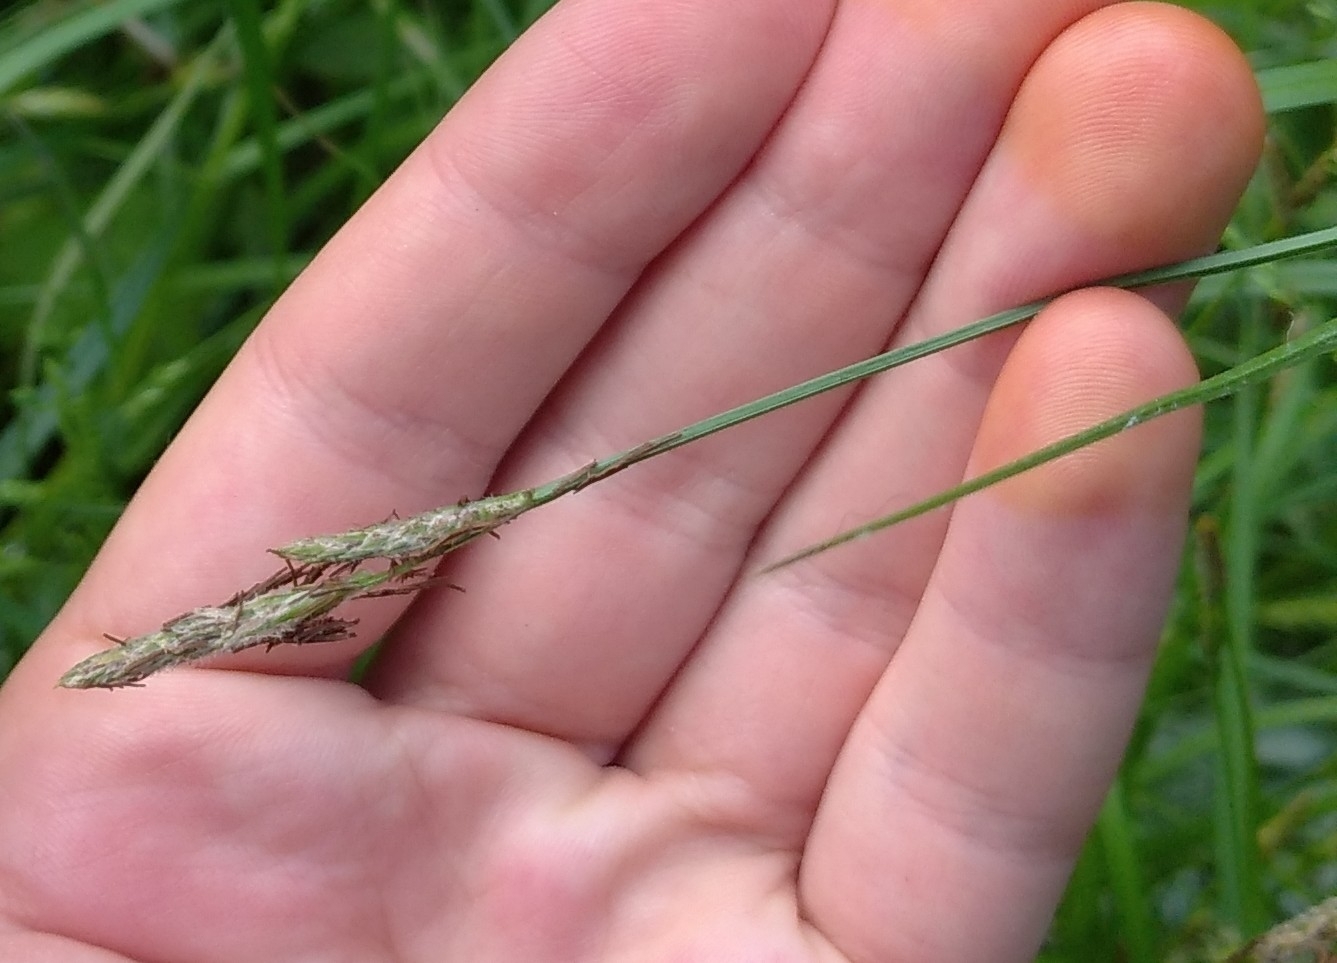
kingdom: Plantae
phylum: Tracheophyta
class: Liliopsida
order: Poales
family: Cyperaceae
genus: Carex
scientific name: Carex hirta
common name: Hairy sedge
